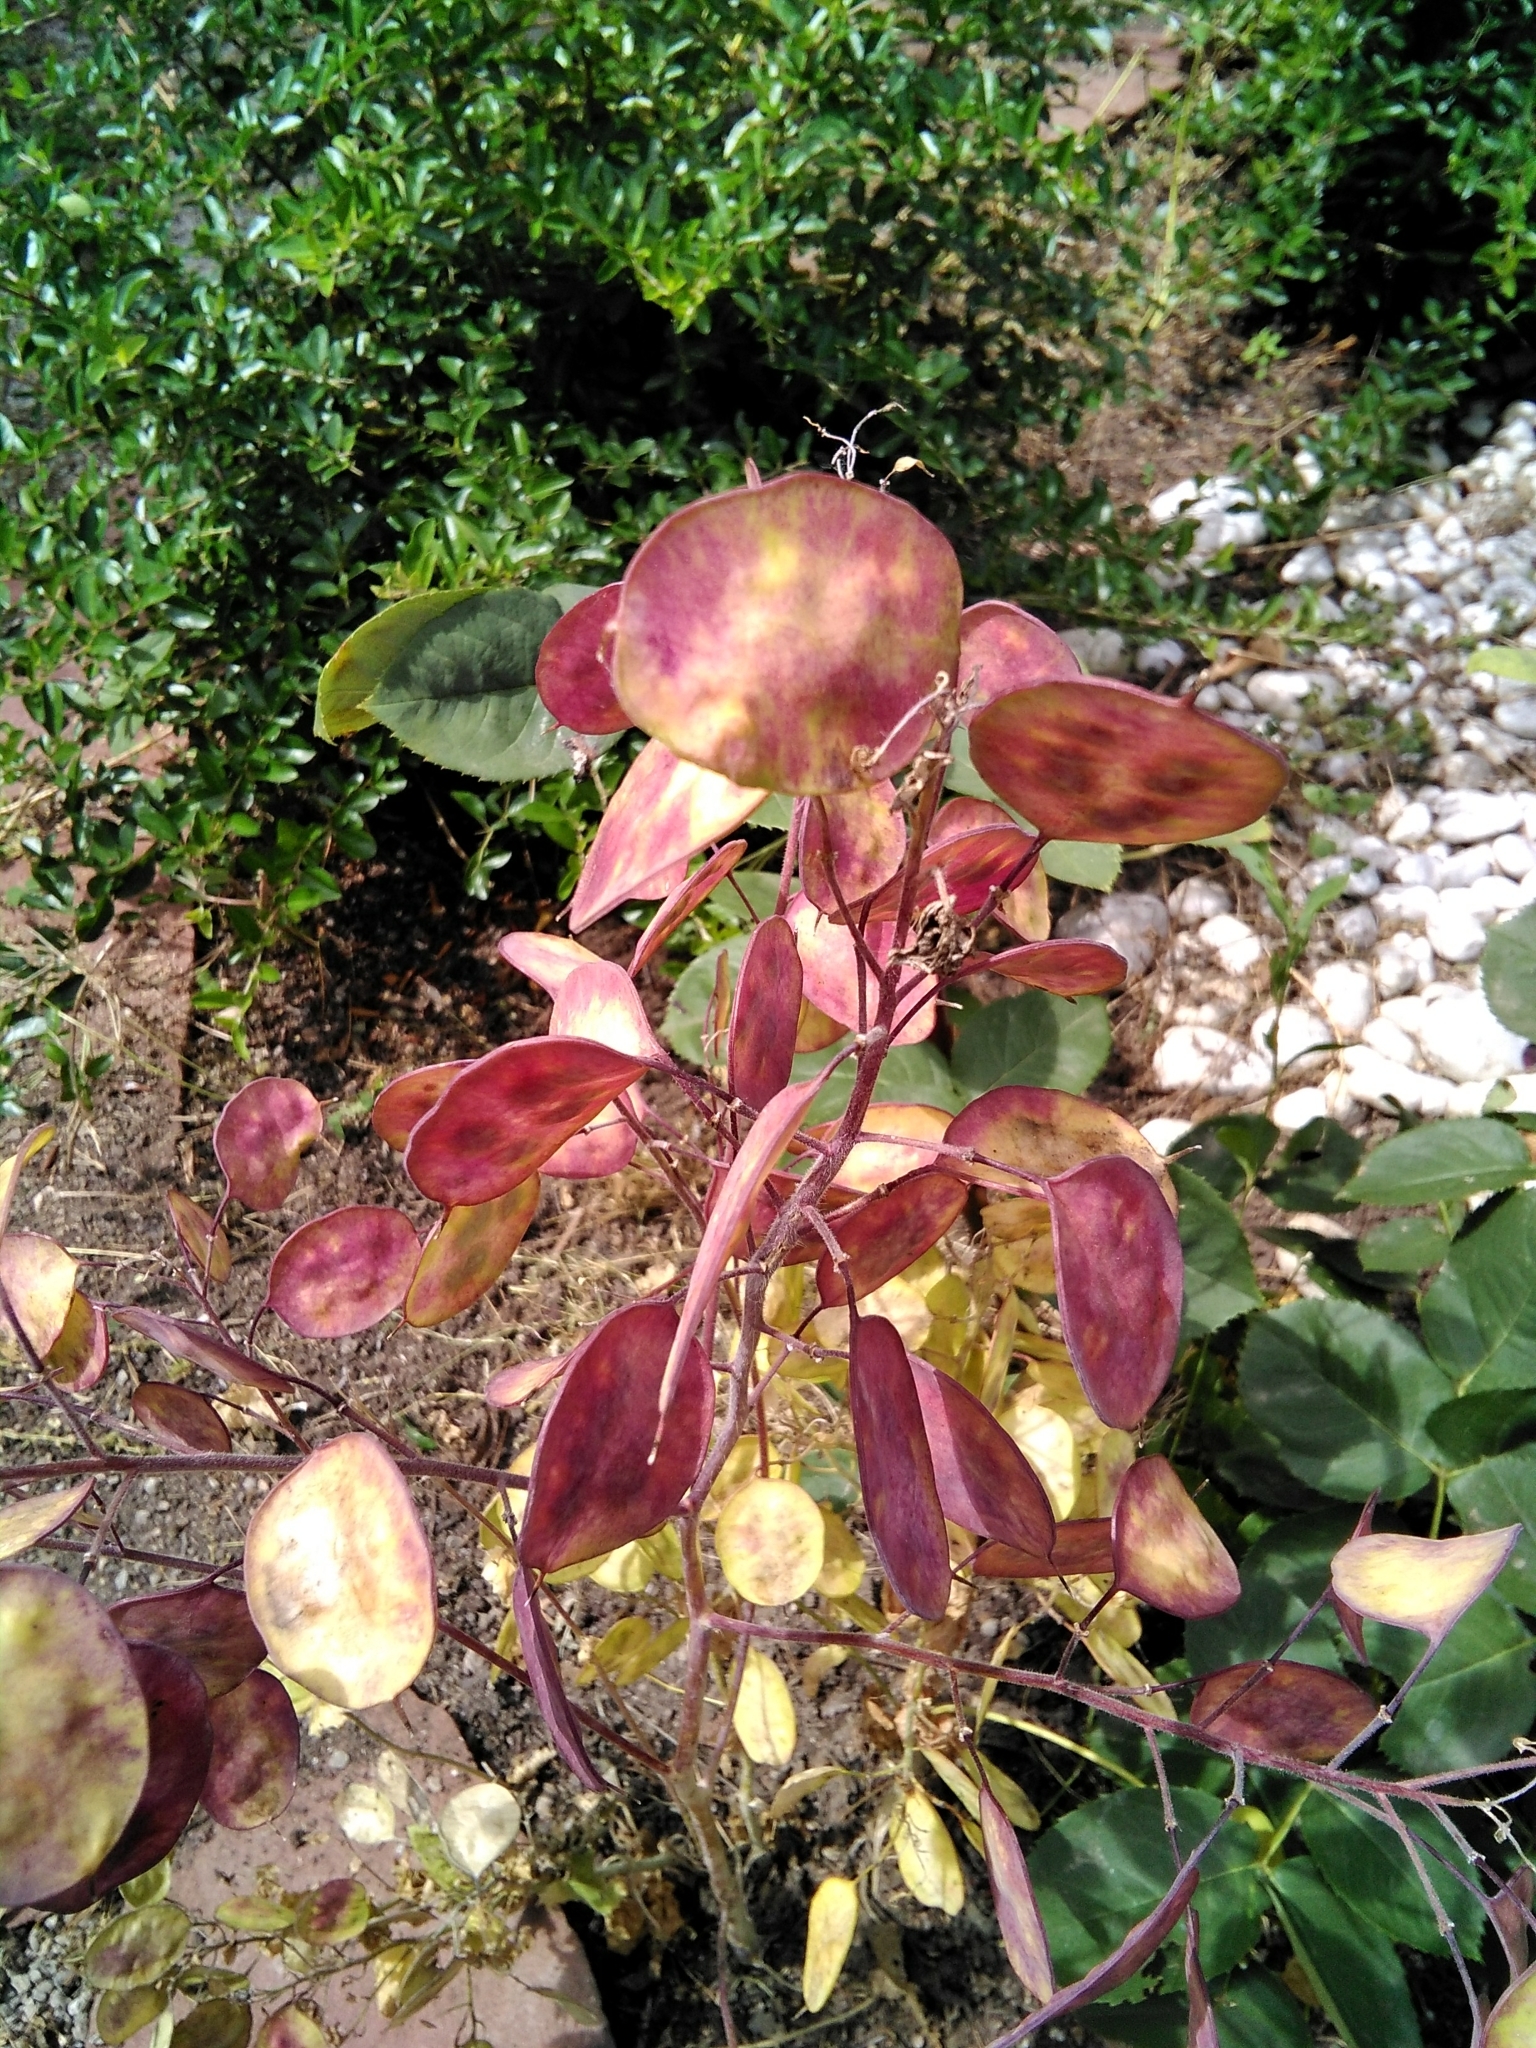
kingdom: Plantae
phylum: Tracheophyta
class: Magnoliopsida
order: Brassicales
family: Brassicaceae
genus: Lunaria
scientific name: Lunaria annua
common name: Honesty
